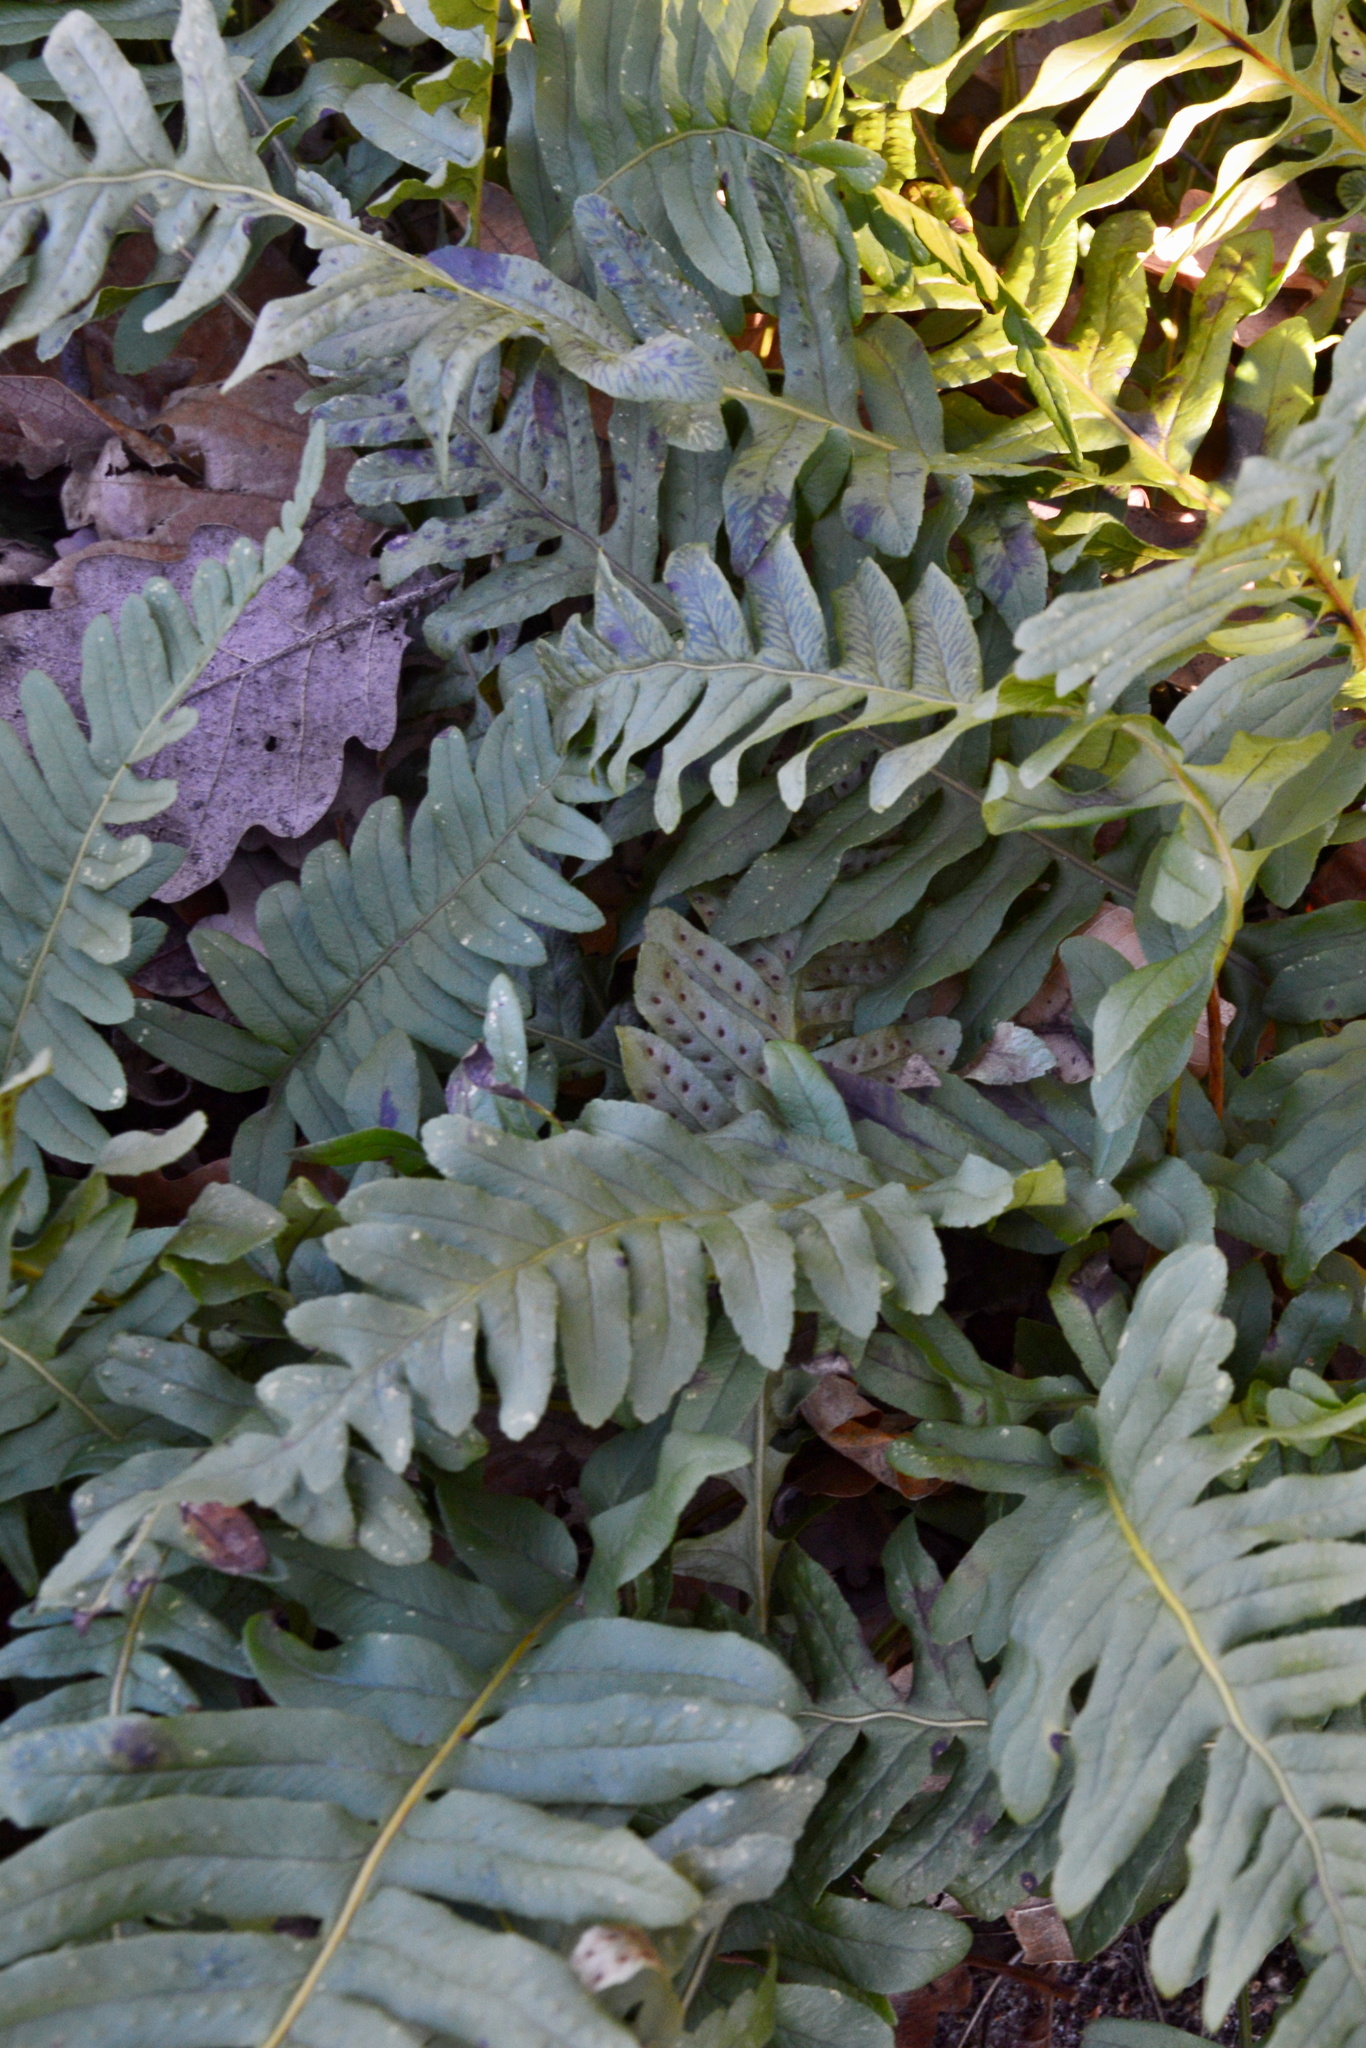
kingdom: Plantae
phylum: Tracheophyta
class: Polypodiopsida
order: Polypodiales
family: Polypodiaceae
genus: Polypodium
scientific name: Polypodium vulgare
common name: Common polypody
